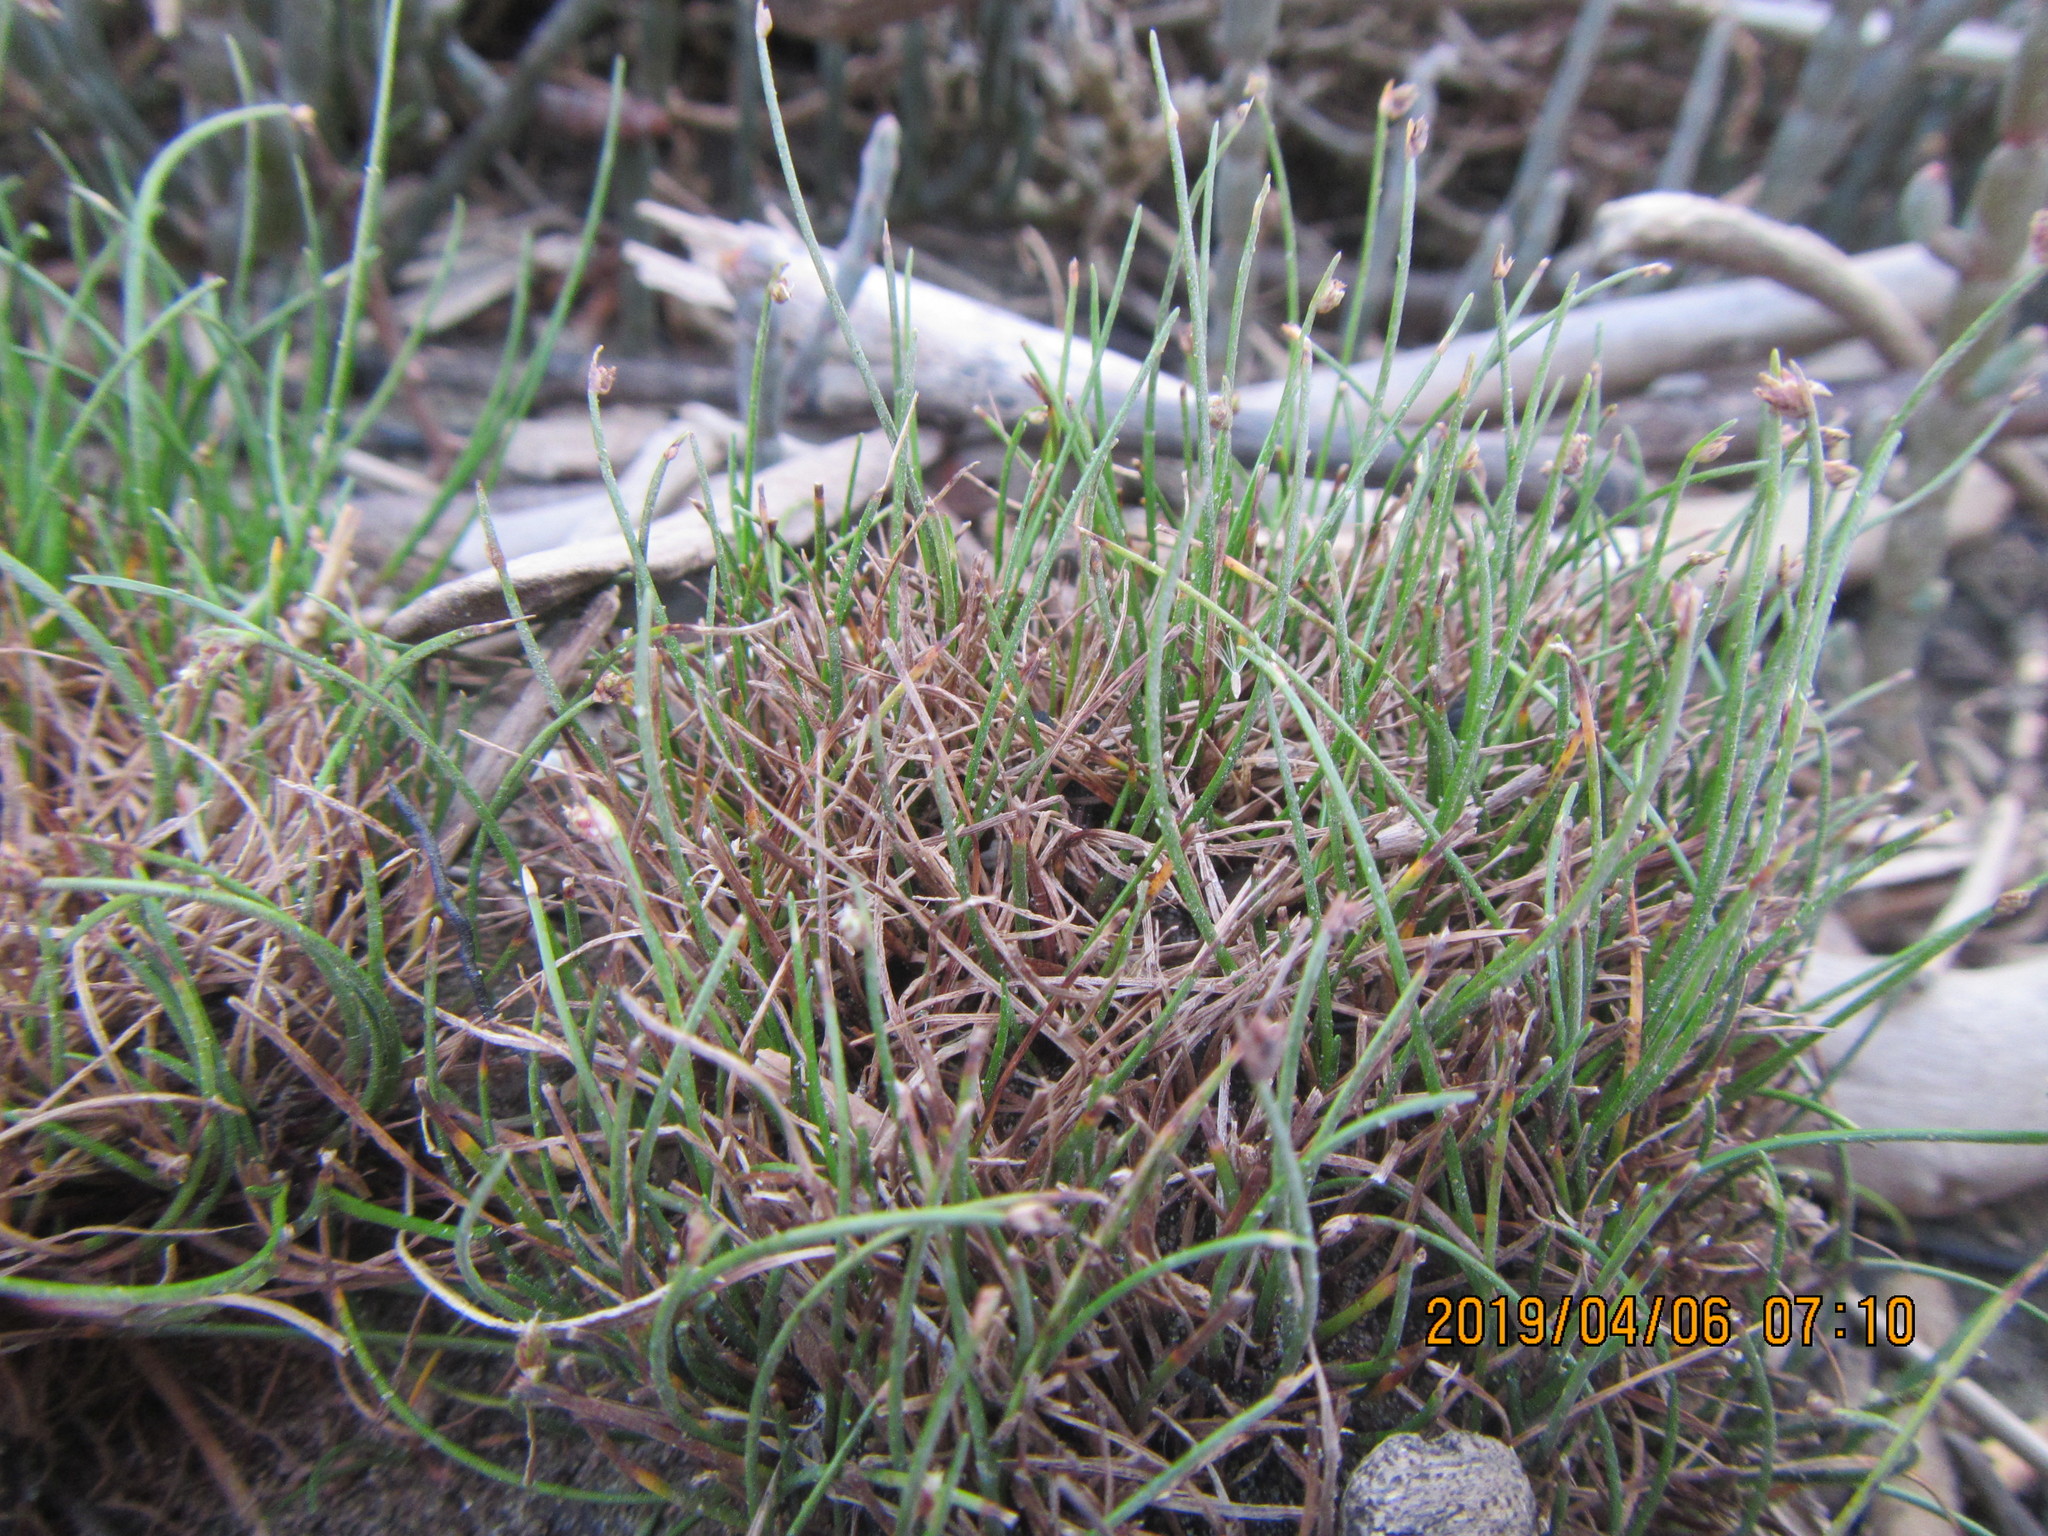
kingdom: Plantae
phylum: Tracheophyta
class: Liliopsida
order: Poales
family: Cyperaceae
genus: Isolepis
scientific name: Isolepis cernua
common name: Slender club-rush
